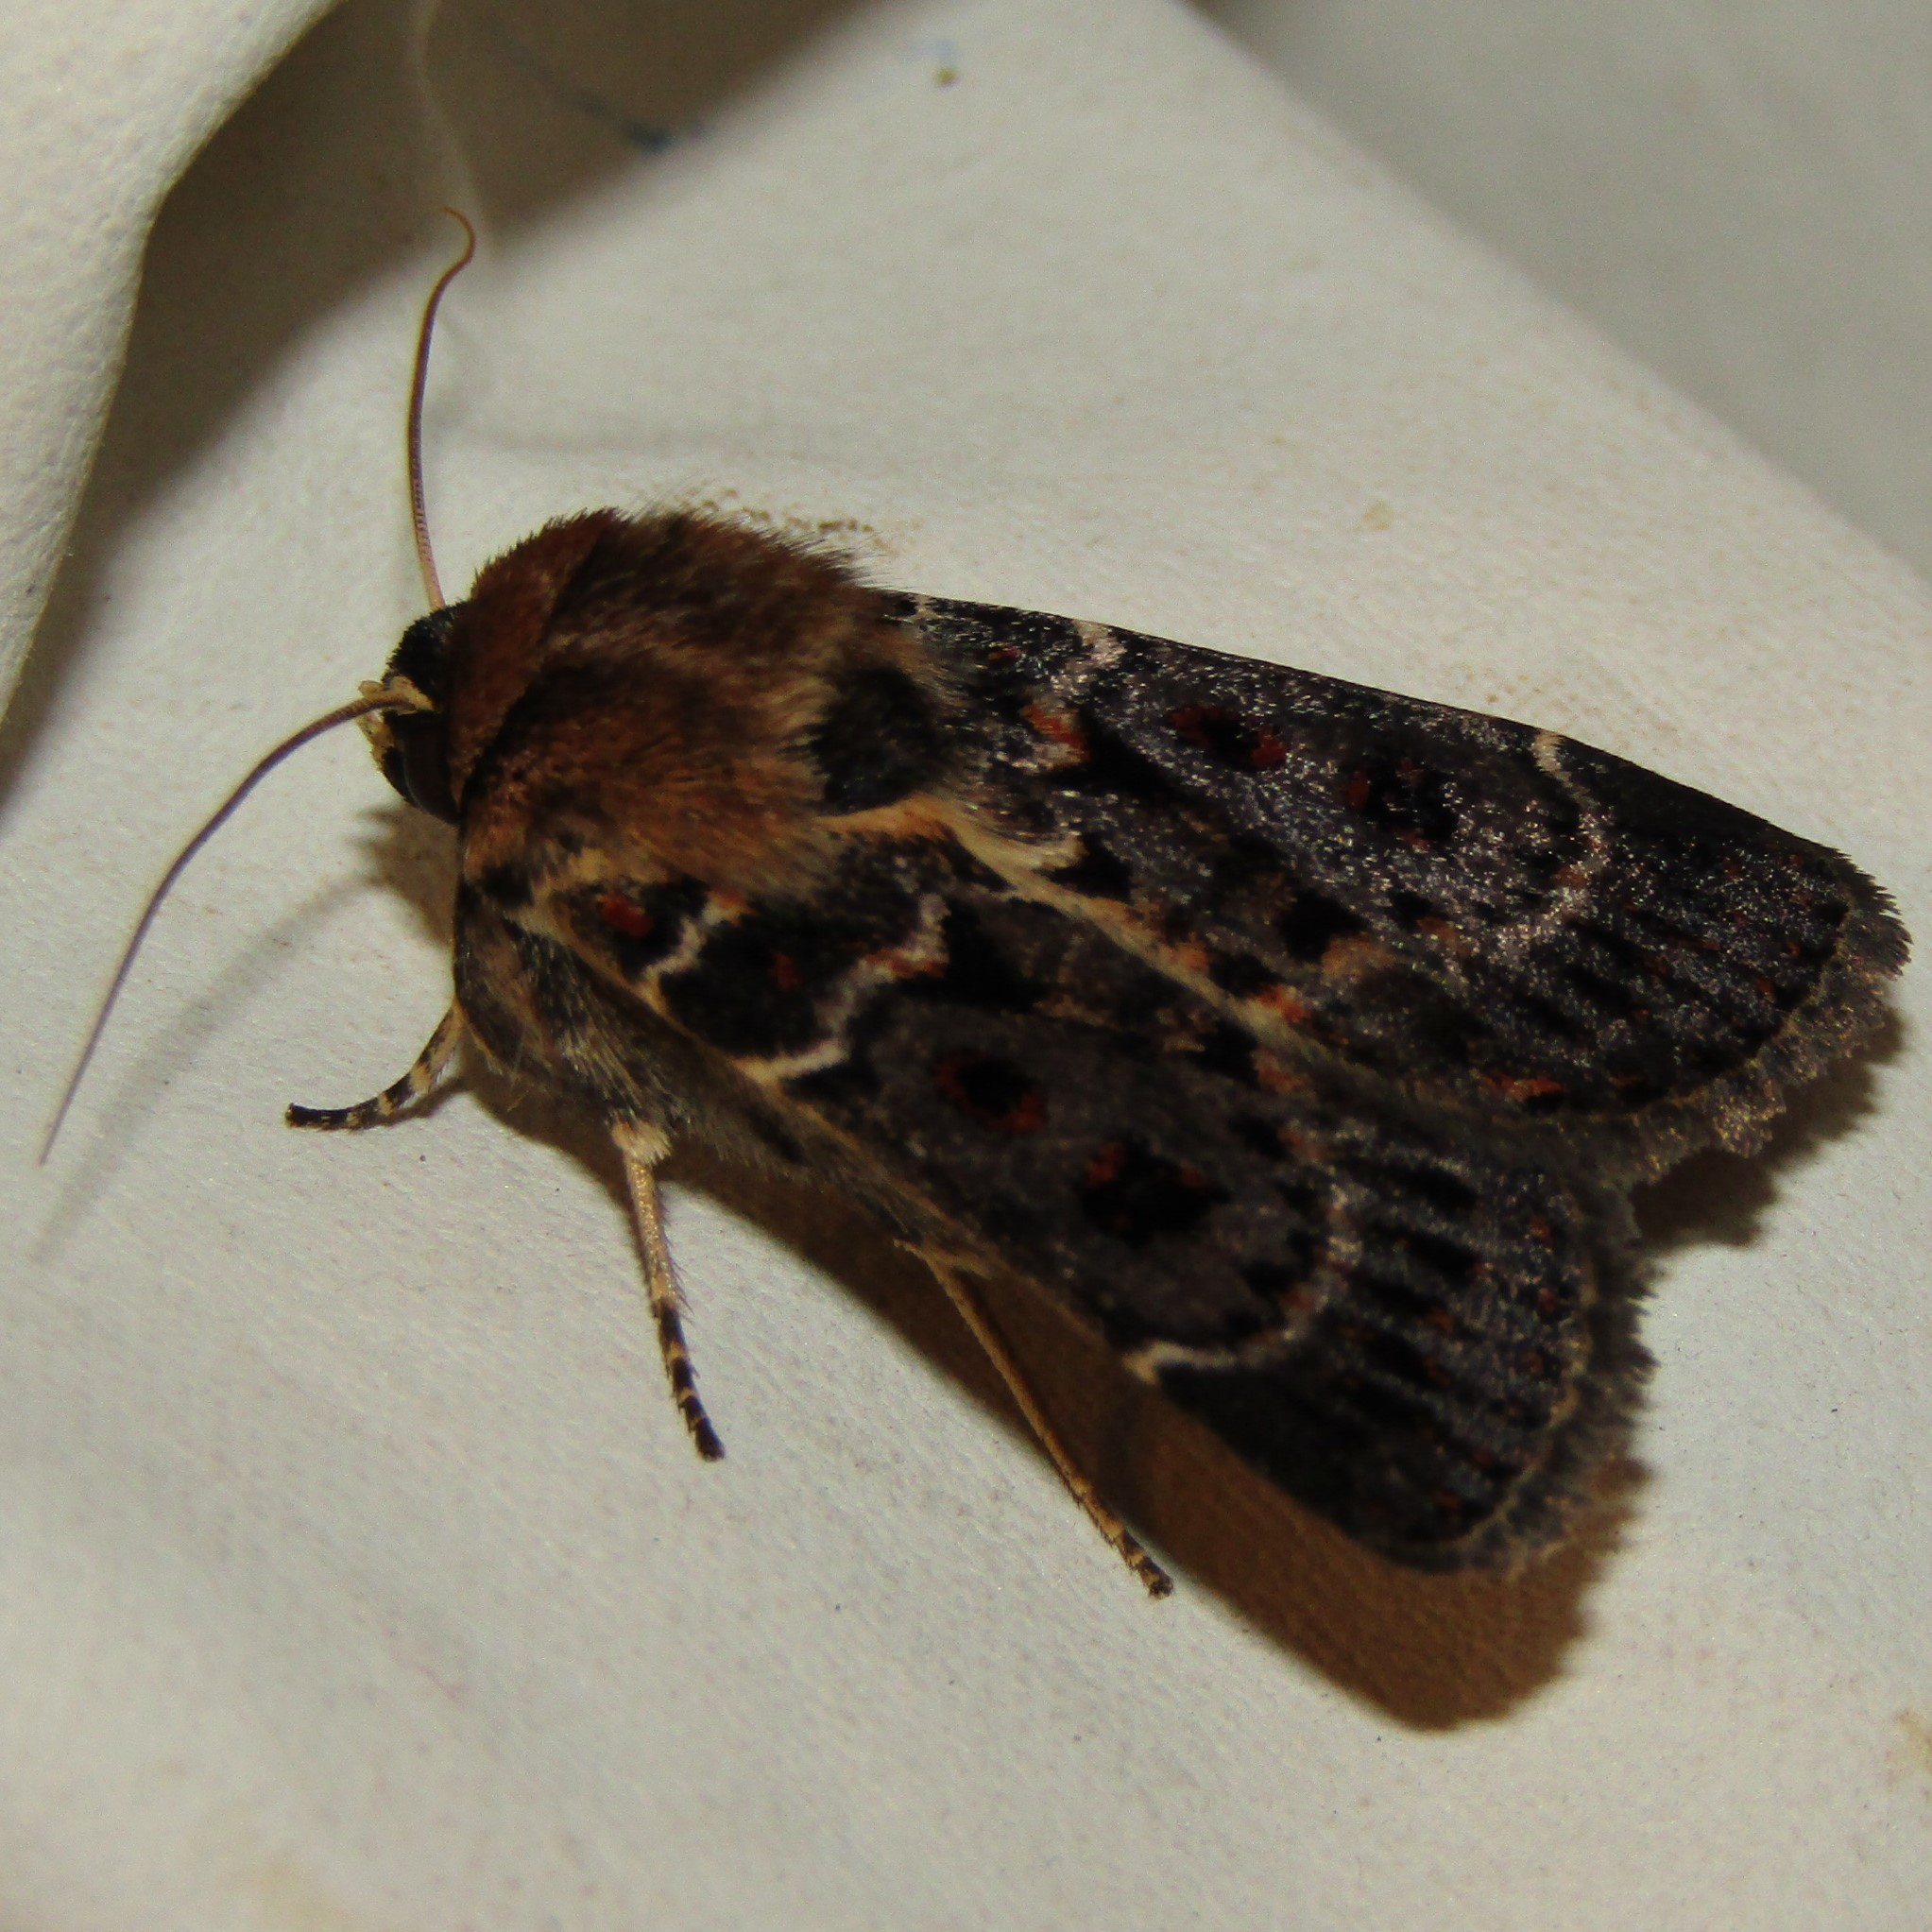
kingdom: Animalia
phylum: Arthropoda
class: Insecta
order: Lepidoptera
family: Noctuidae
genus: Proteuxoa
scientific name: Proteuxoa sanguinipuncta
